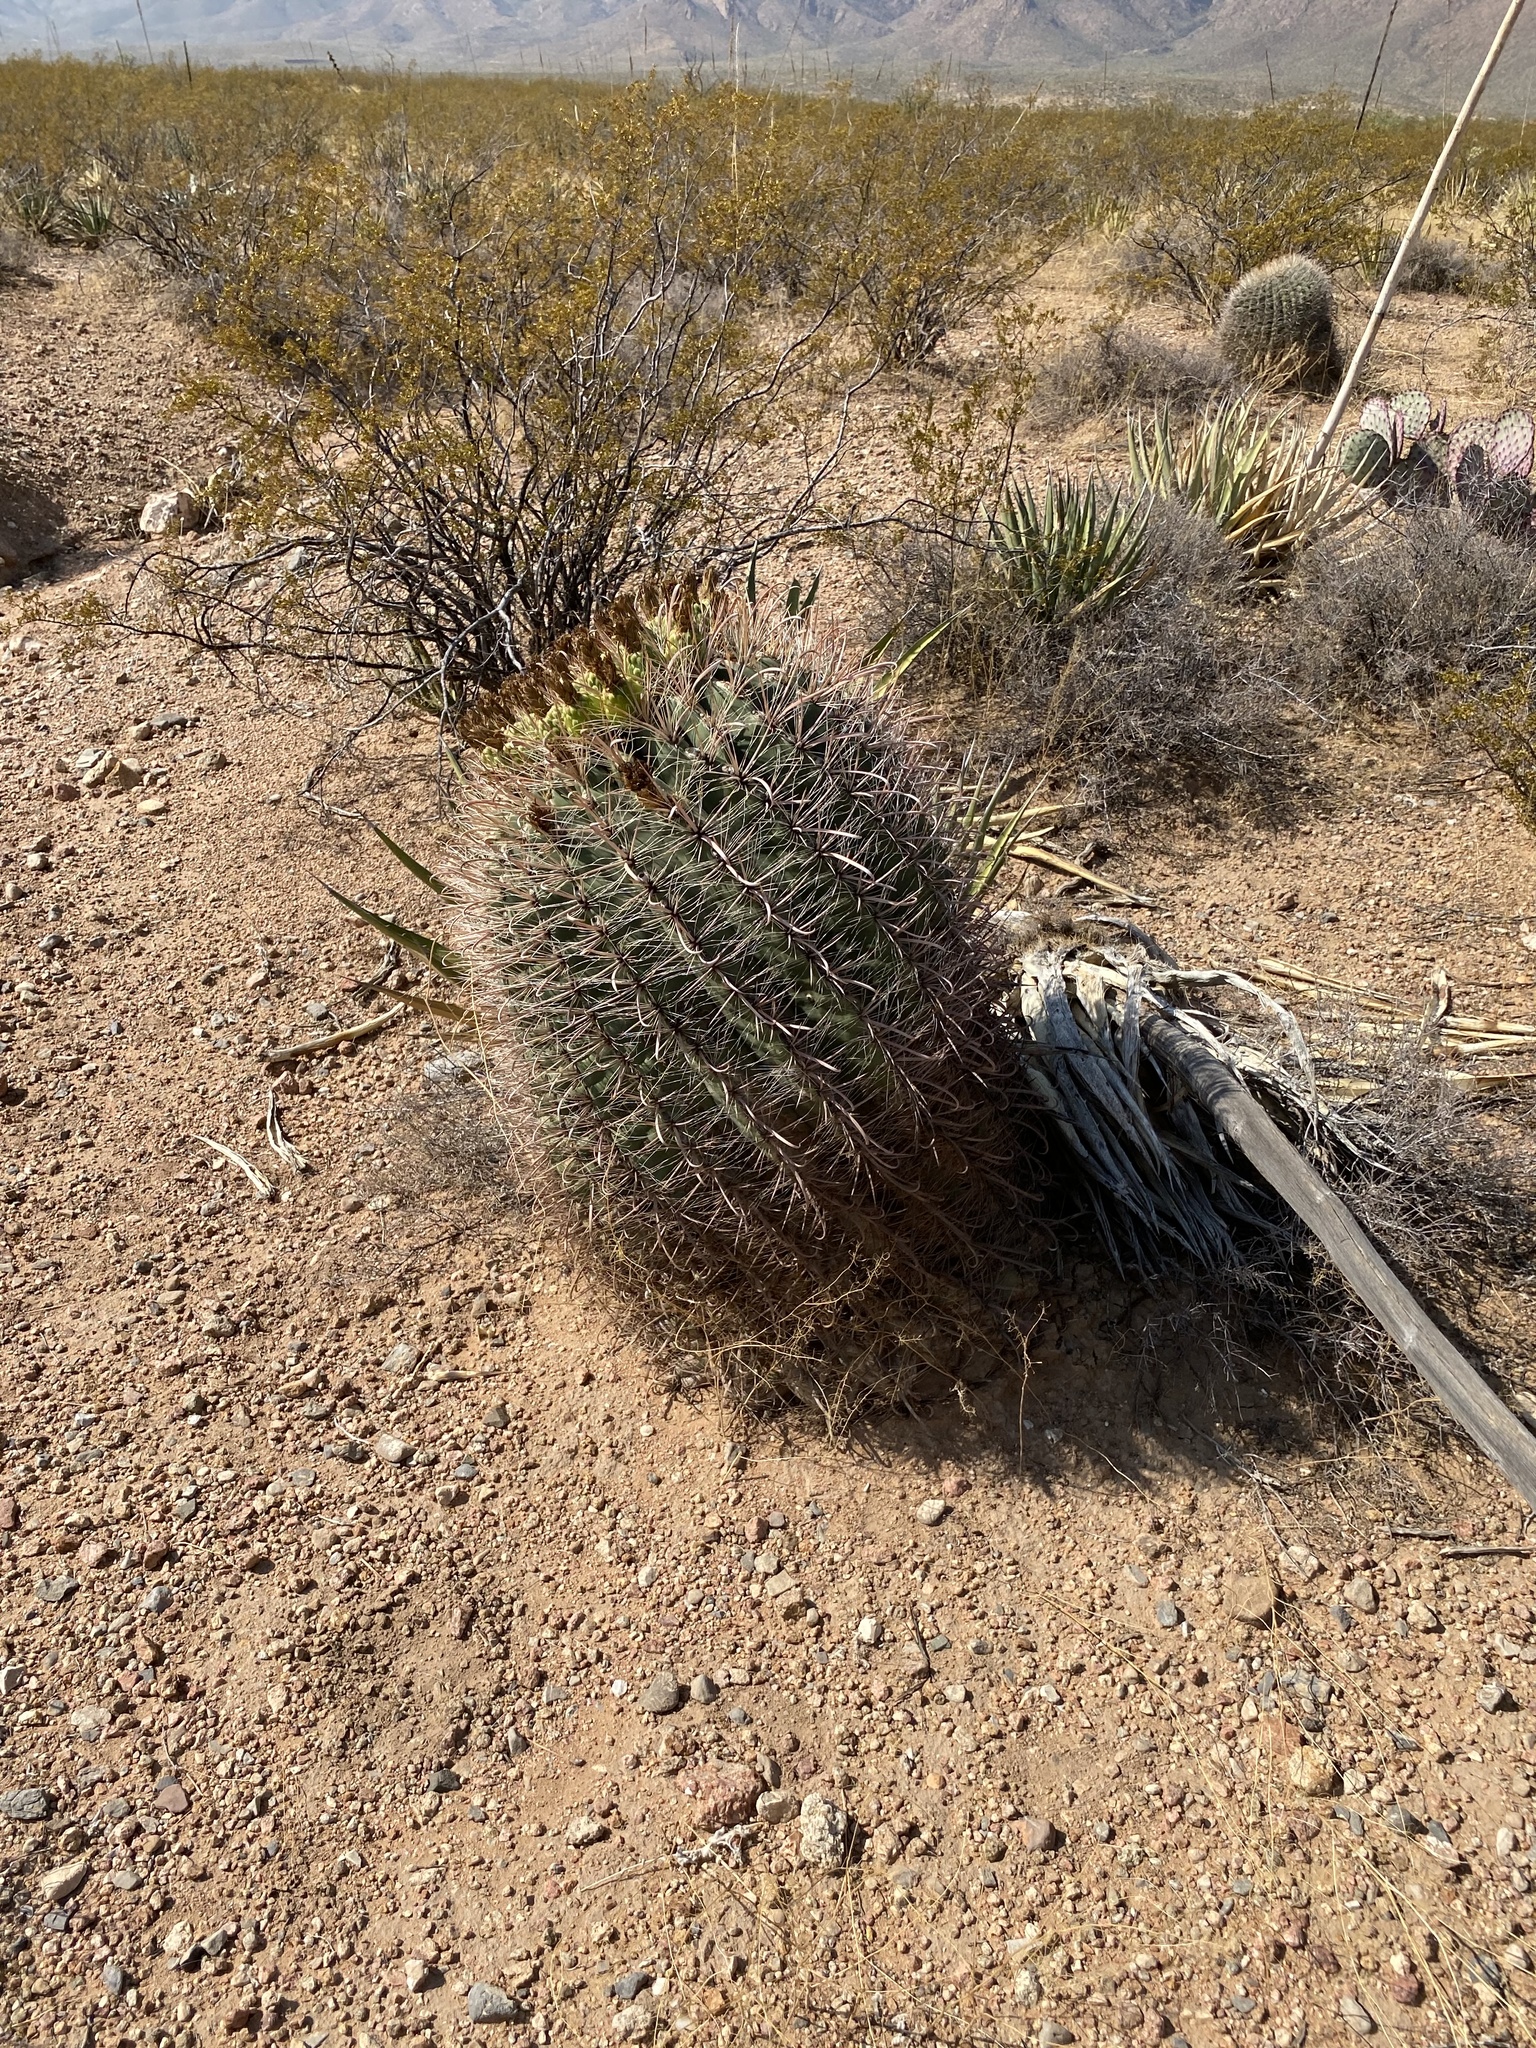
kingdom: Plantae
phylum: Tracheophyta
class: Magnoliopsida
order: Caryophyllales
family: Cactaceae
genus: Ferocactus
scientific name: Ferocactus wislizeni
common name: Candy barrel cactus
